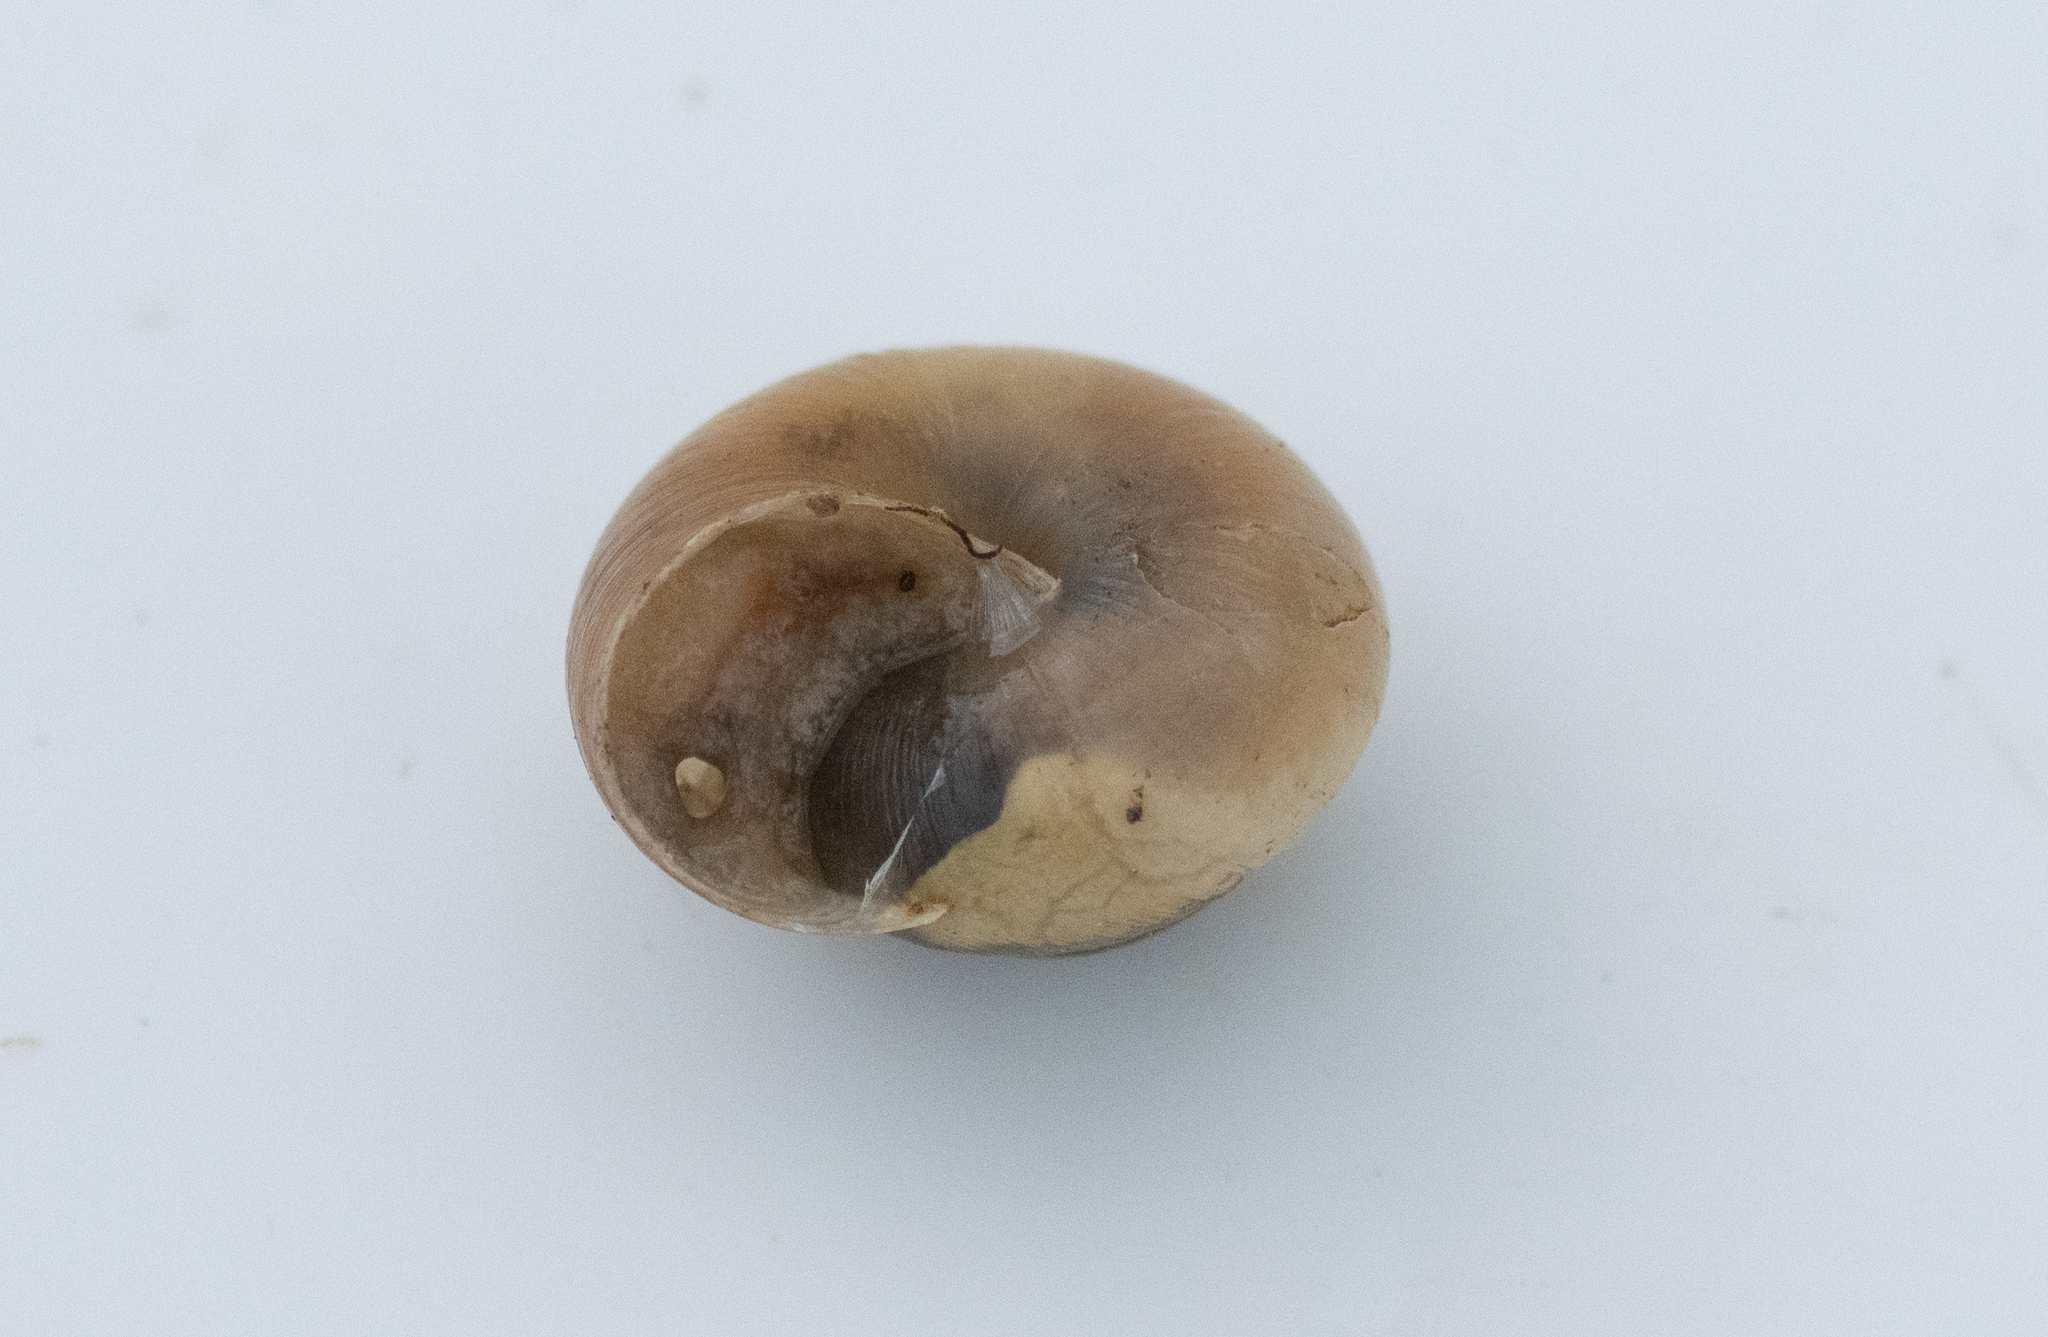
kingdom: Animalia
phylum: Mollusca
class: Gastropoda
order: Stylommatophora
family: Hygromiidae
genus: Monacha
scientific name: Monacha cantiana
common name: Kentish snail
